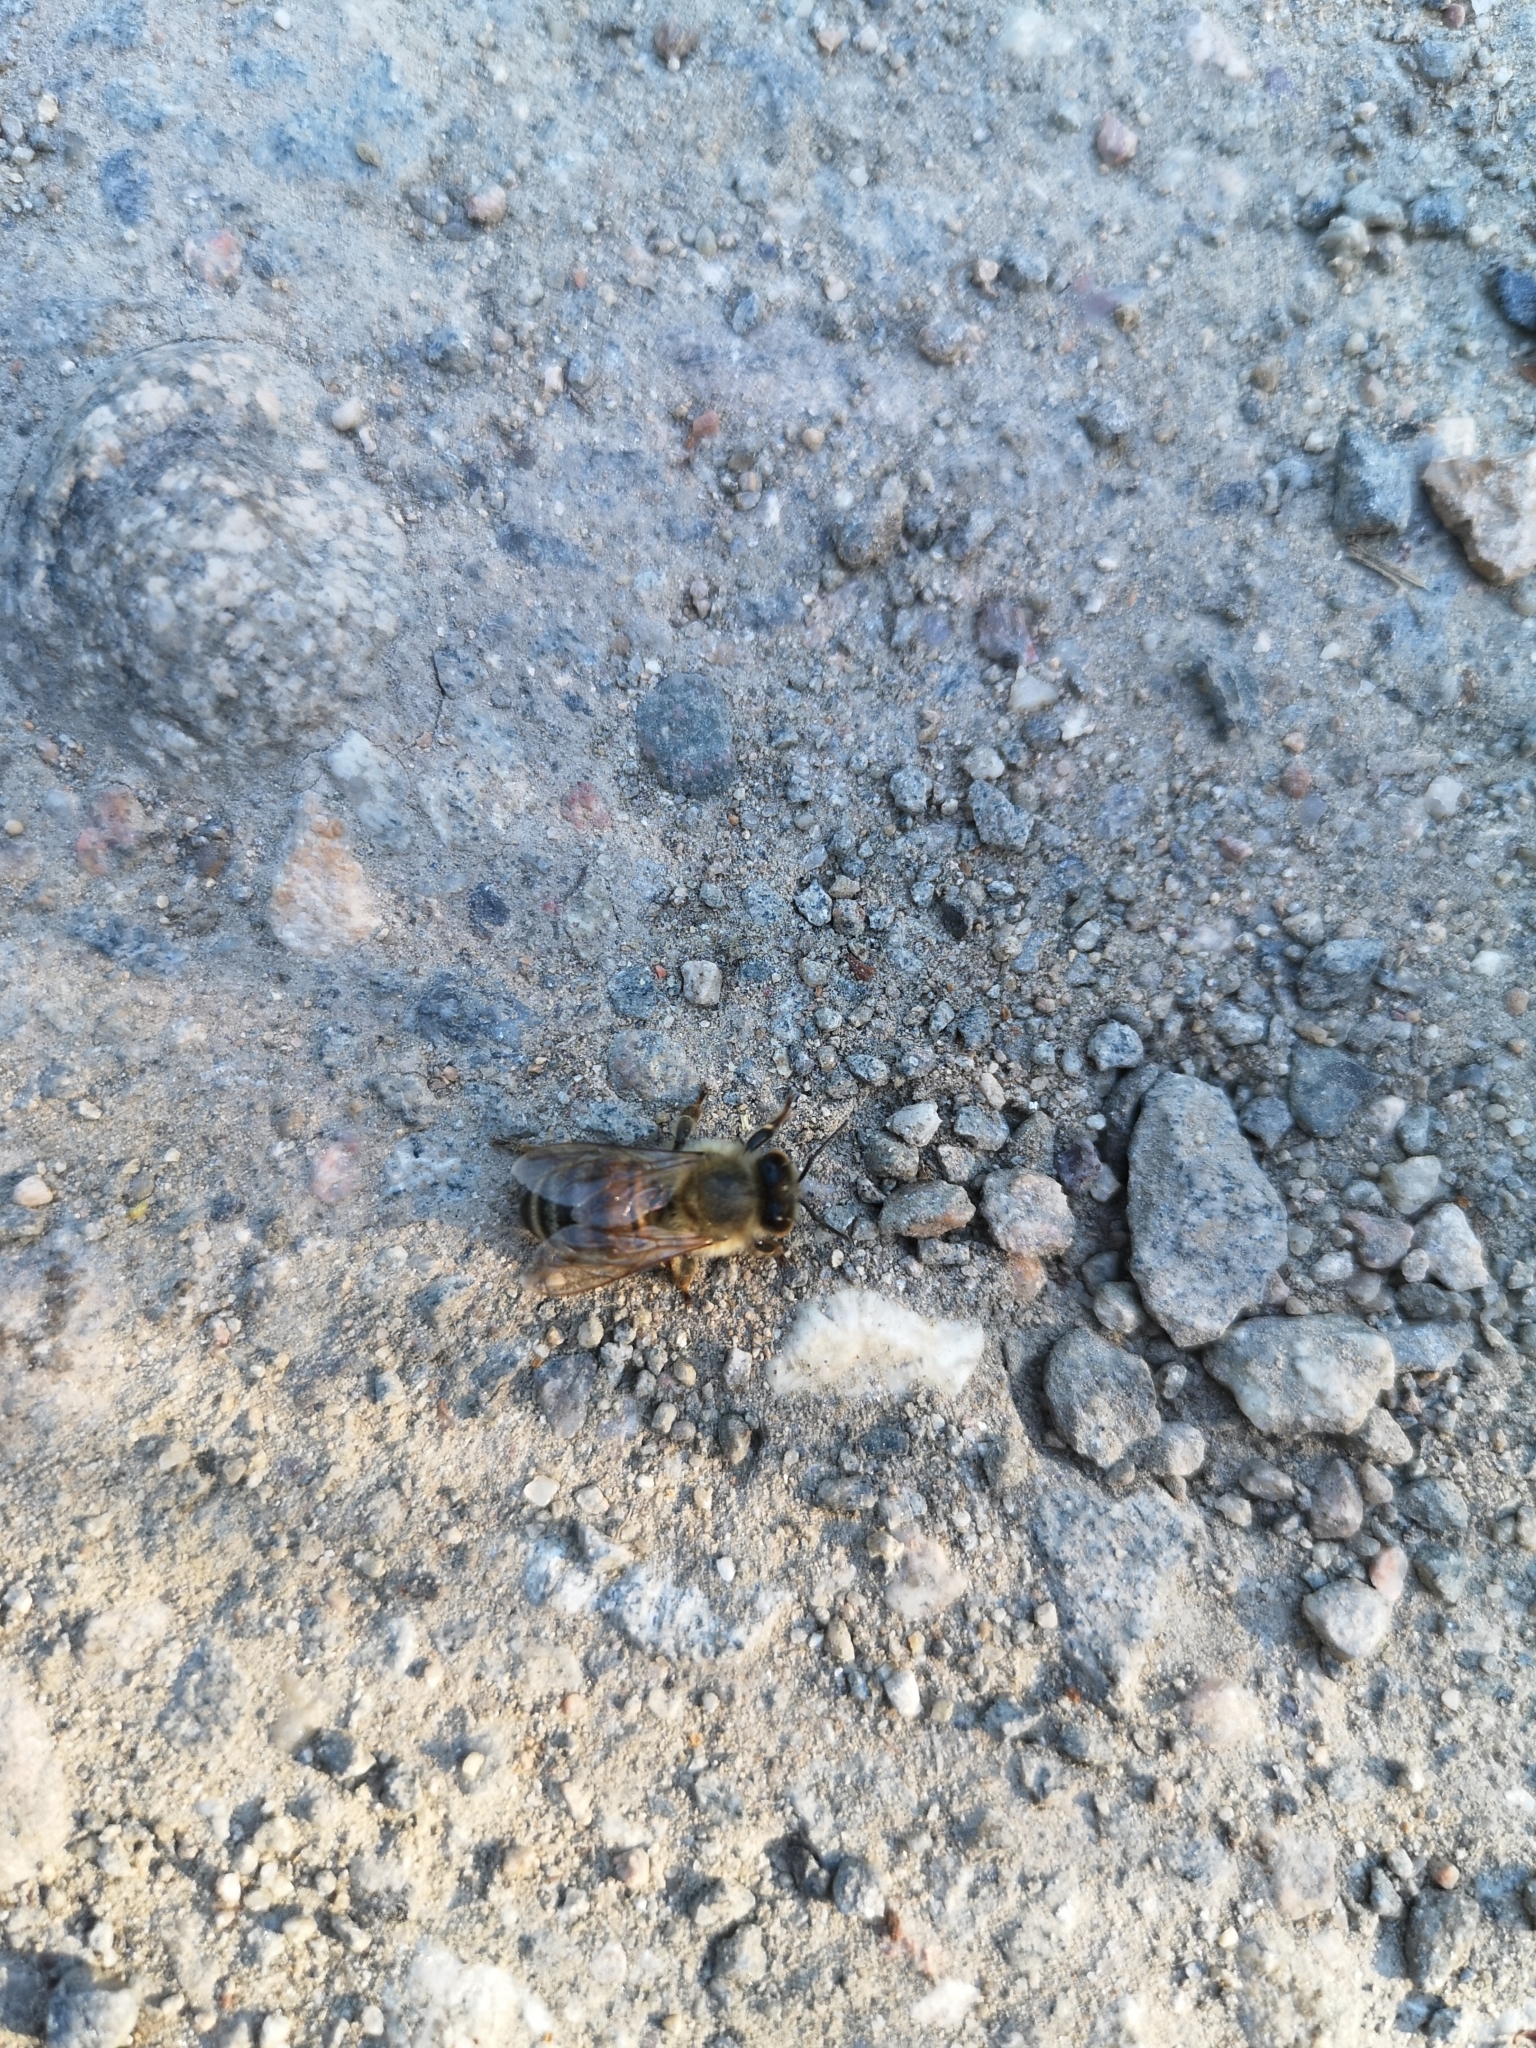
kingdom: Animalia
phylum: Arthropoda
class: Insecta
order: Hymenoptera
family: Apidae
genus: Apis
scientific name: Apis mellifera
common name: Honey bee
